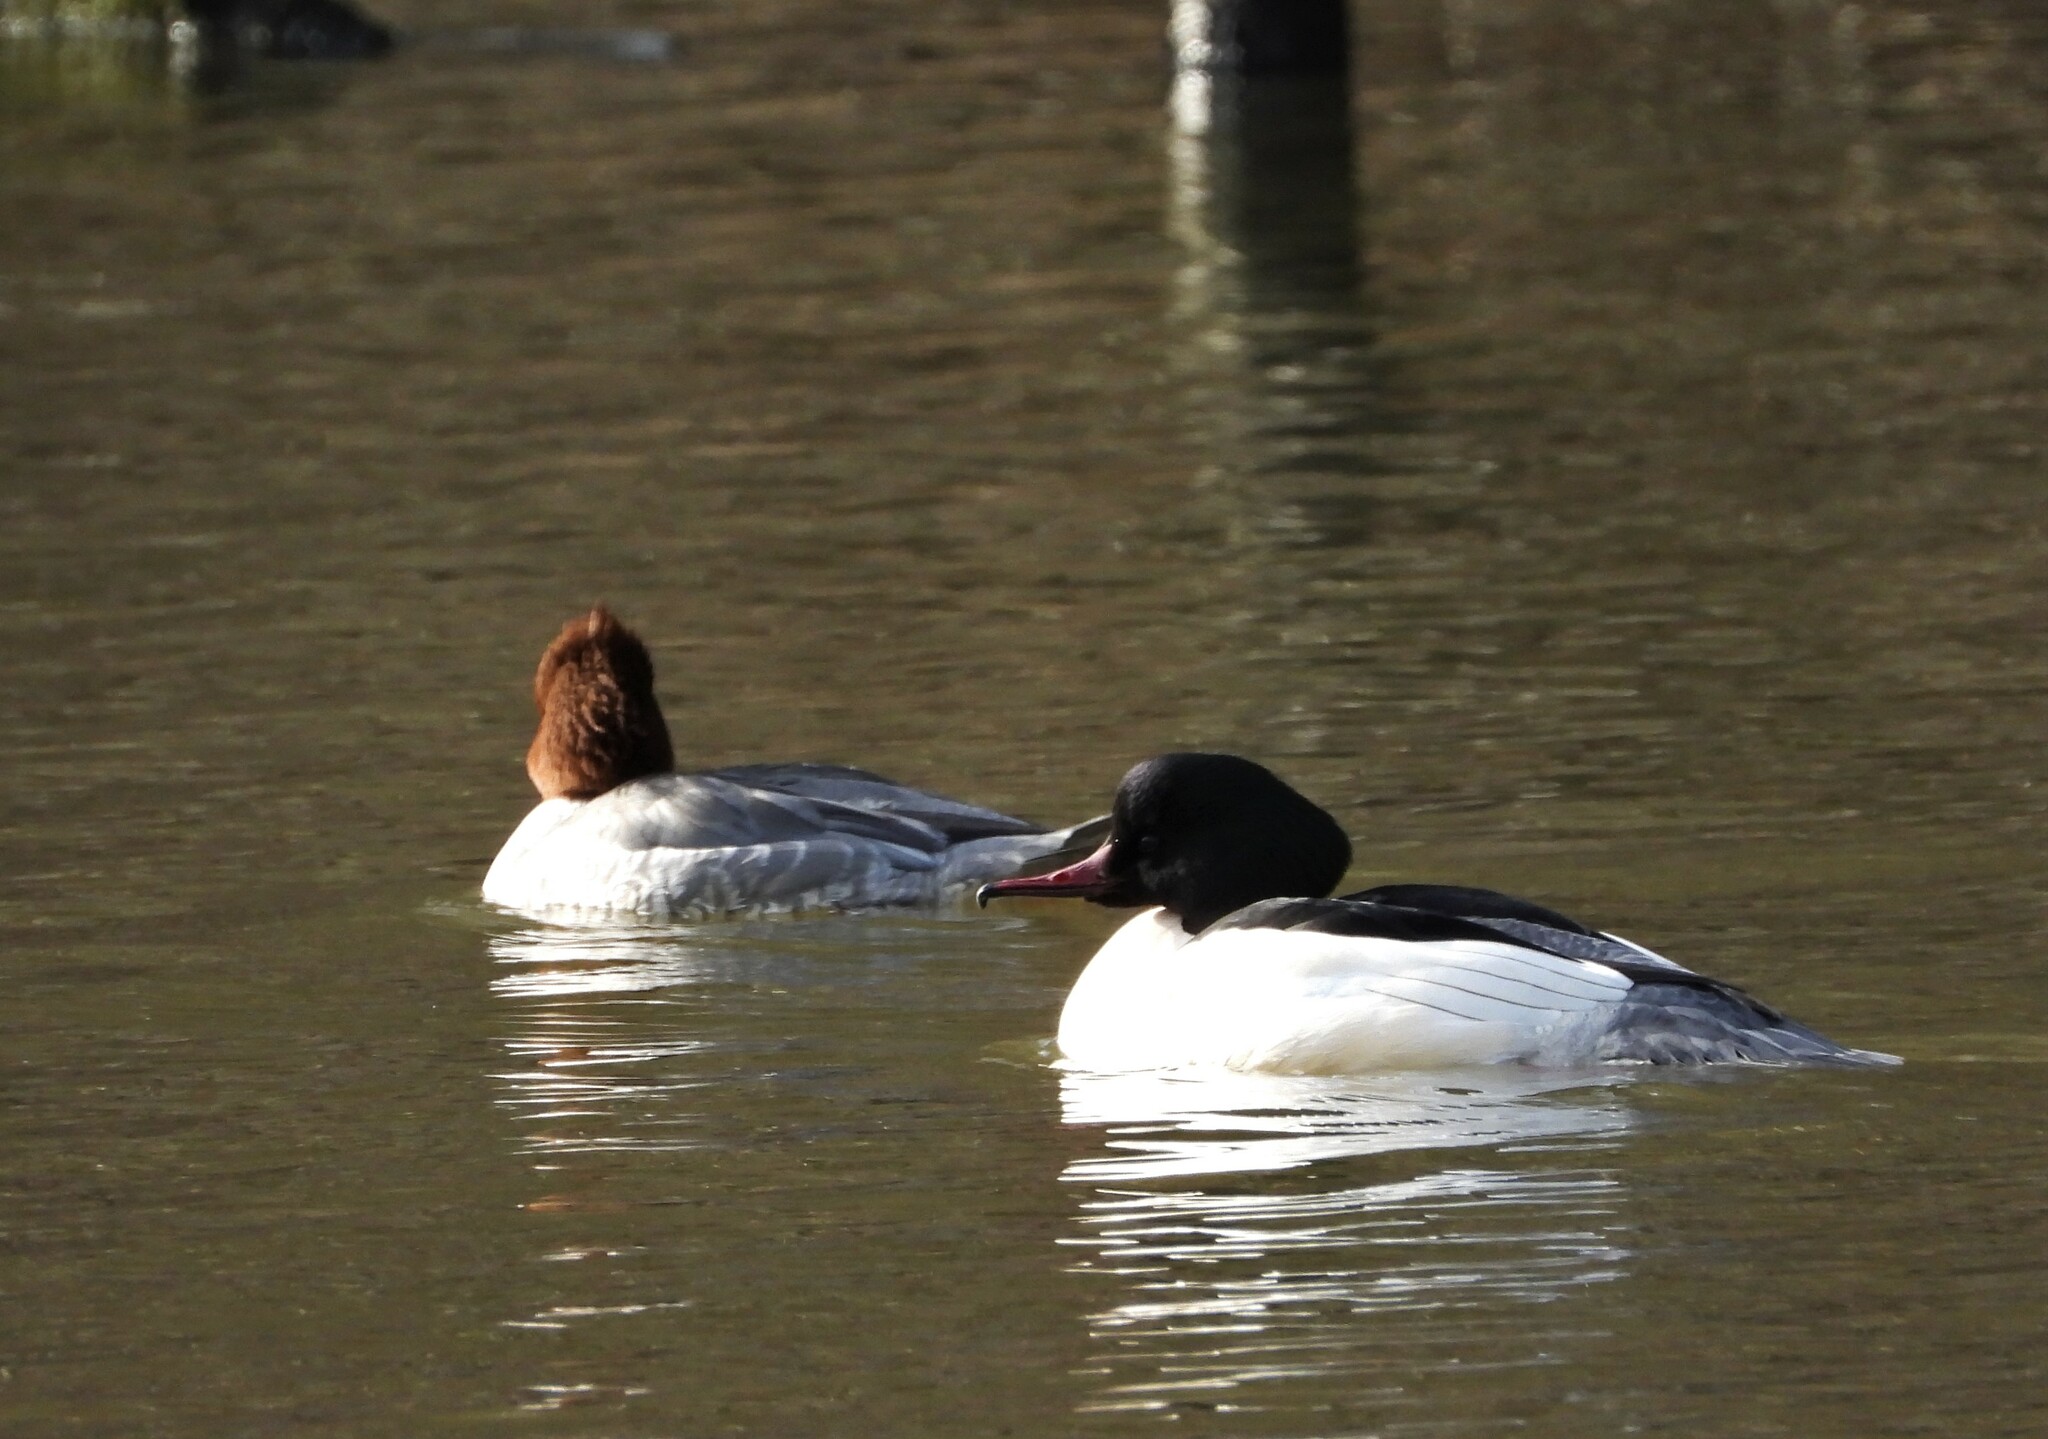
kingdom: Animalia
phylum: Chordata
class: Aves
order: Anseriformes
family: Anatidae
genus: Mergus
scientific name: Mergus merganser
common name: Common merganser
